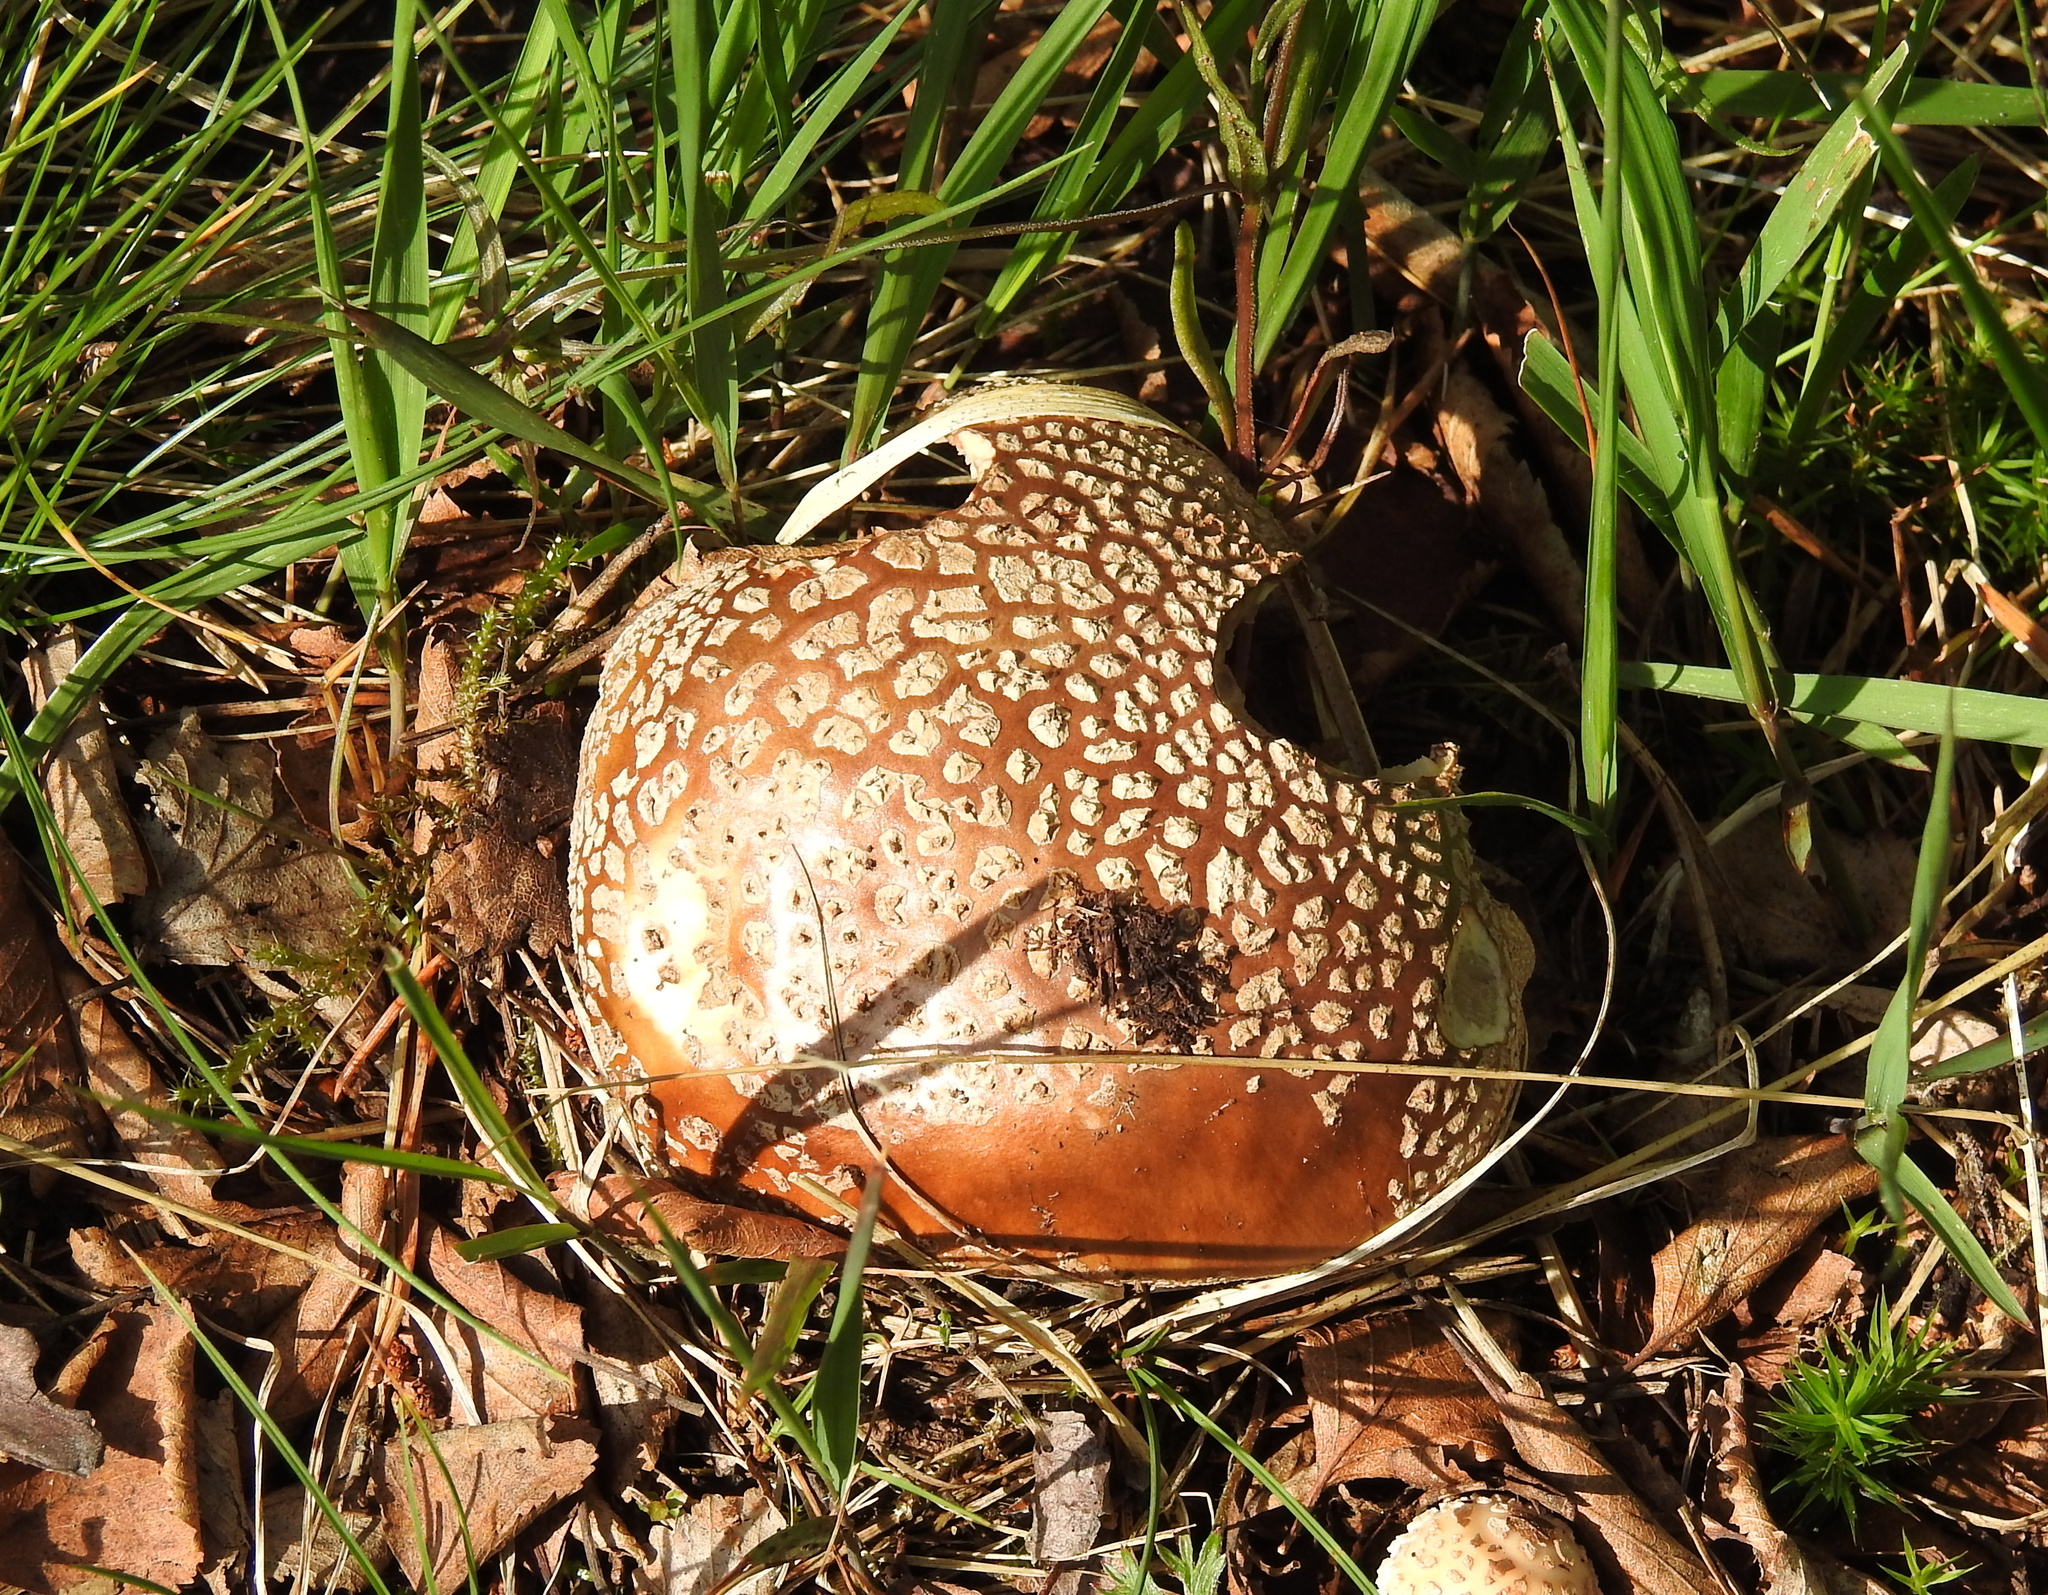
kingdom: Fungi
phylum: Basidiomycota
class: Agaricomycetes
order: Agaricales
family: Amanitaceae
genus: Amanita
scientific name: Amanita rubescens
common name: Blusher
